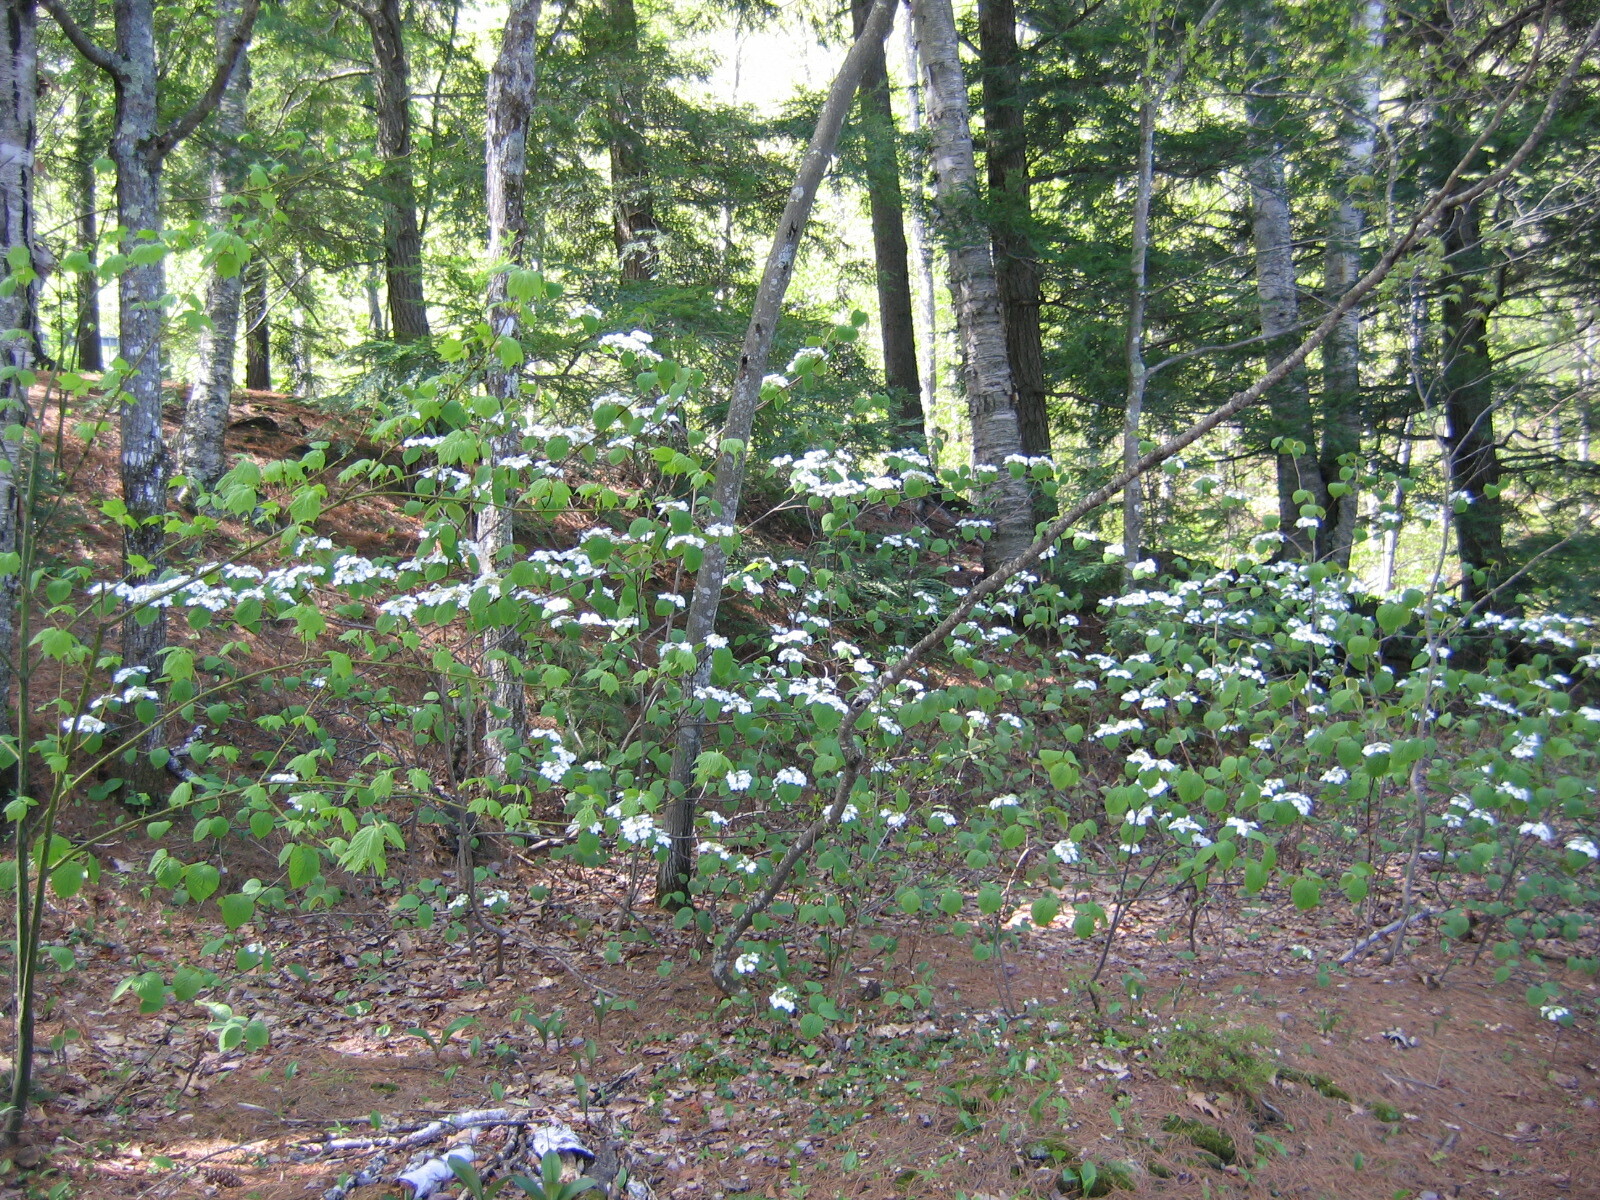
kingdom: Plantae
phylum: Tracheophyta
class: Magnoliopsida
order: Dipsacales
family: Viburnaceae
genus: Viburnum
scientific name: Viburnum lantanoides
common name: Hobblebush
